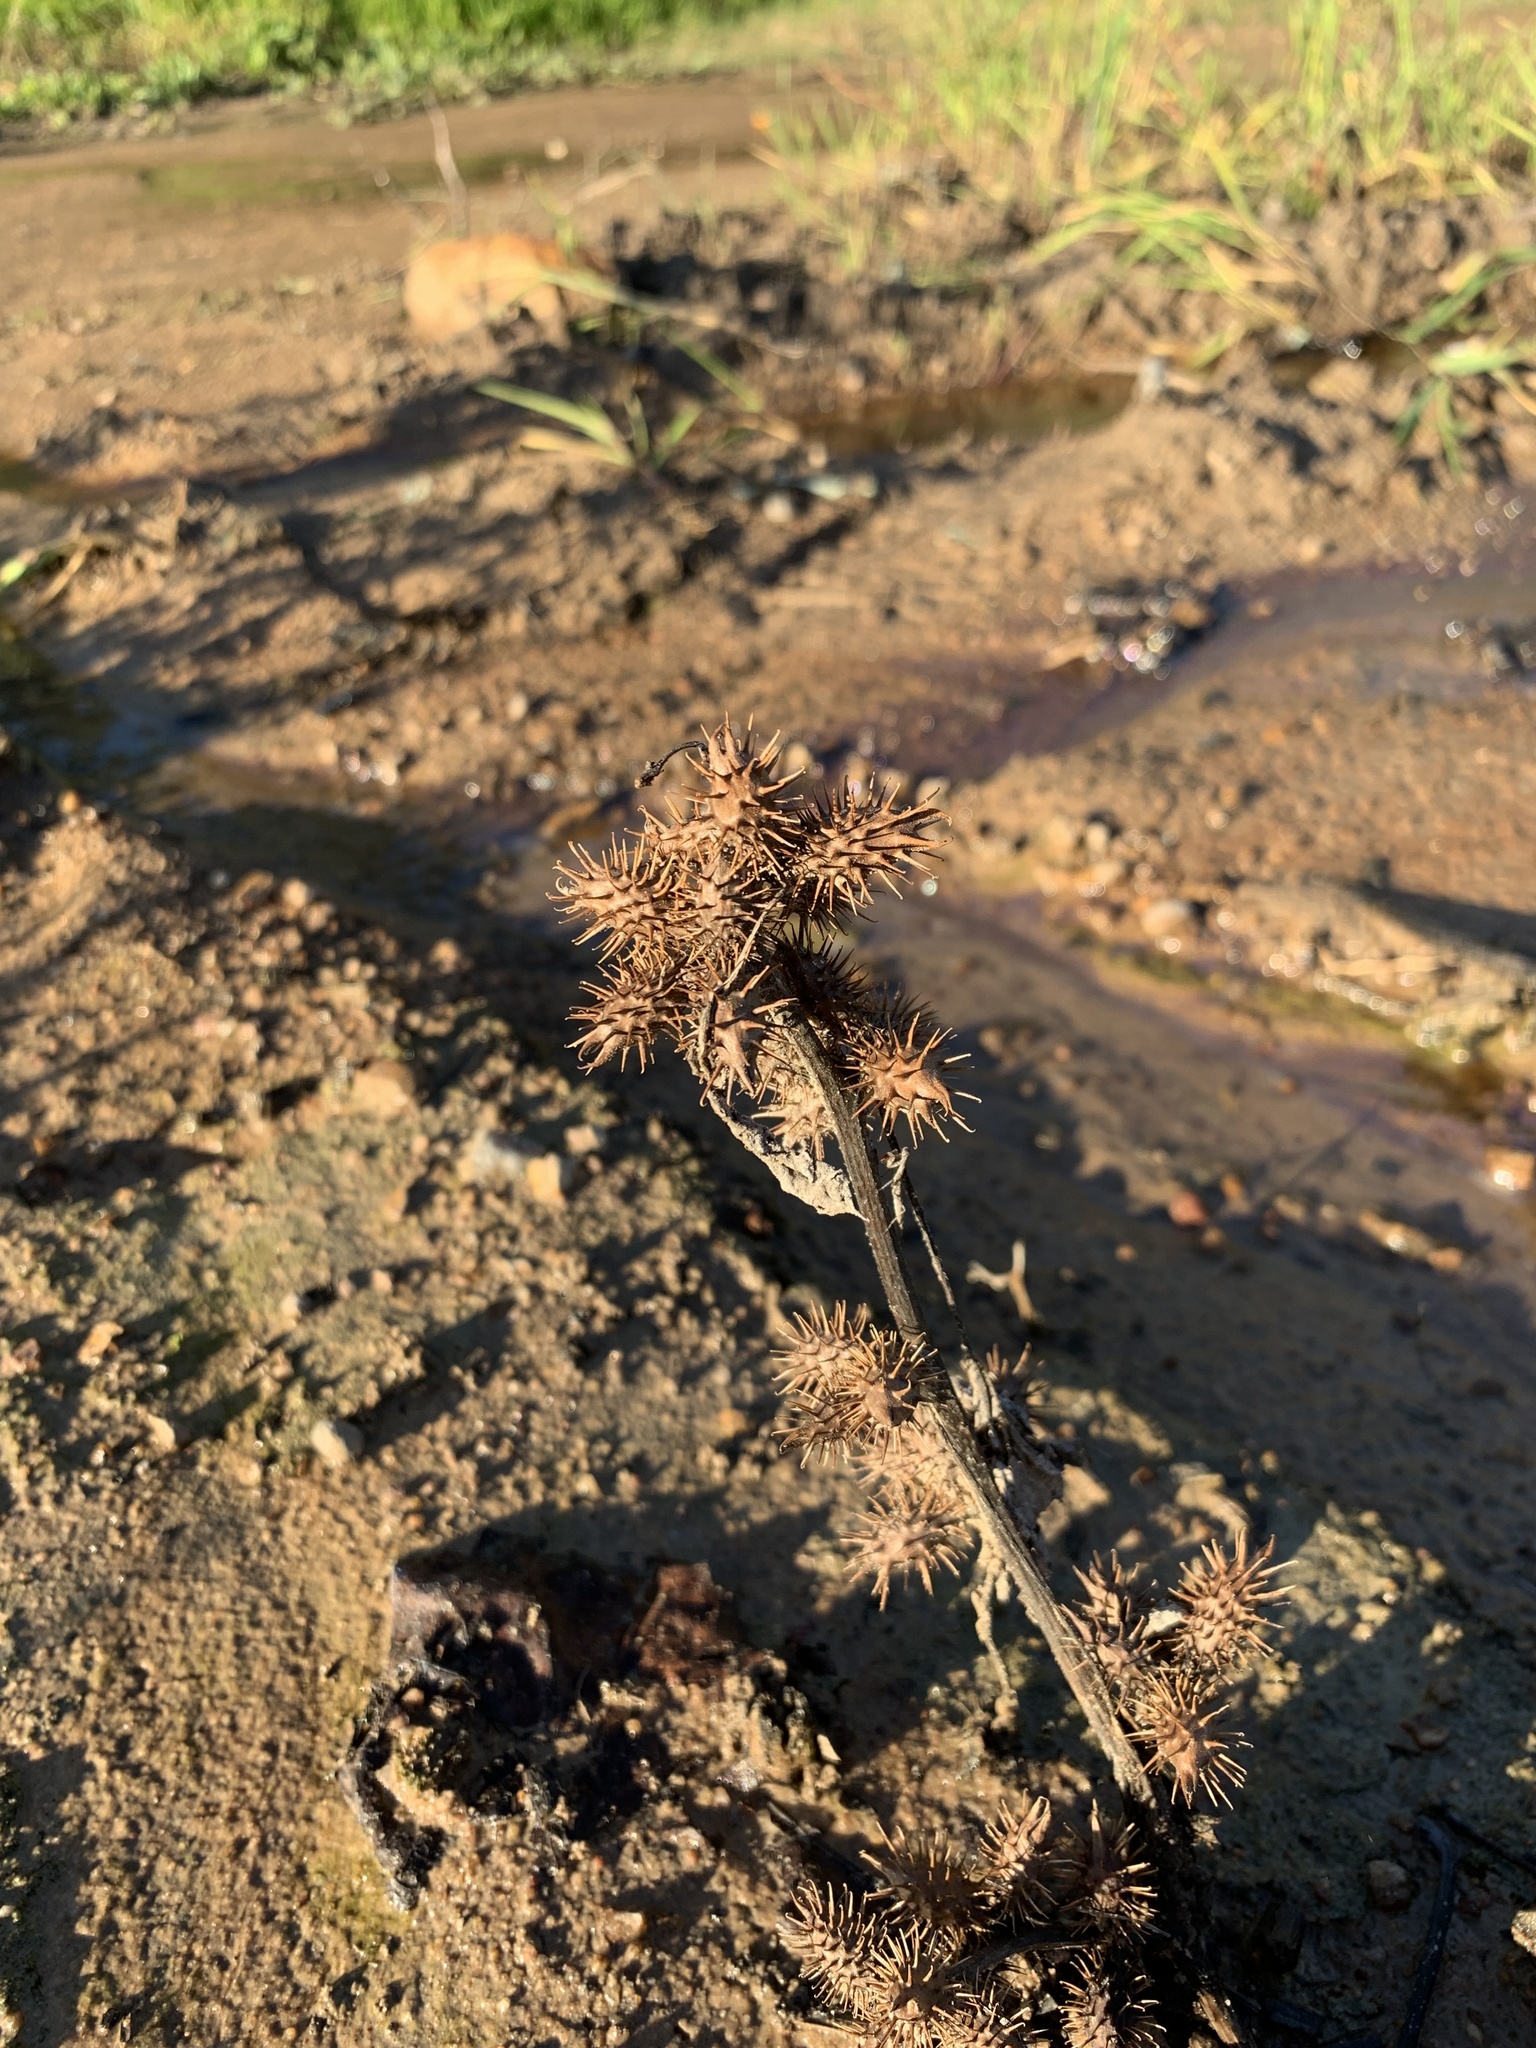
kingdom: Plantae
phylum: Tracheophyta
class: Magnoliopsida
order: Asterales
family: Asteraceae
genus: Xanthium
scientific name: Xanthium strumarium
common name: Rough cocklebur
